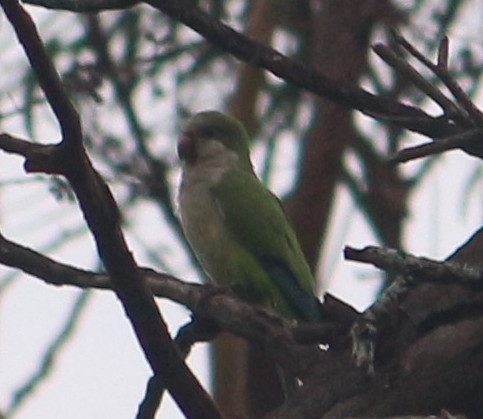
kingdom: Animalia
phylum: Chordata
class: Aves
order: Psittaciformes
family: Psittacidae
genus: Myiopsitta
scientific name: Myiopsitta monachus
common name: Monk parakeet
